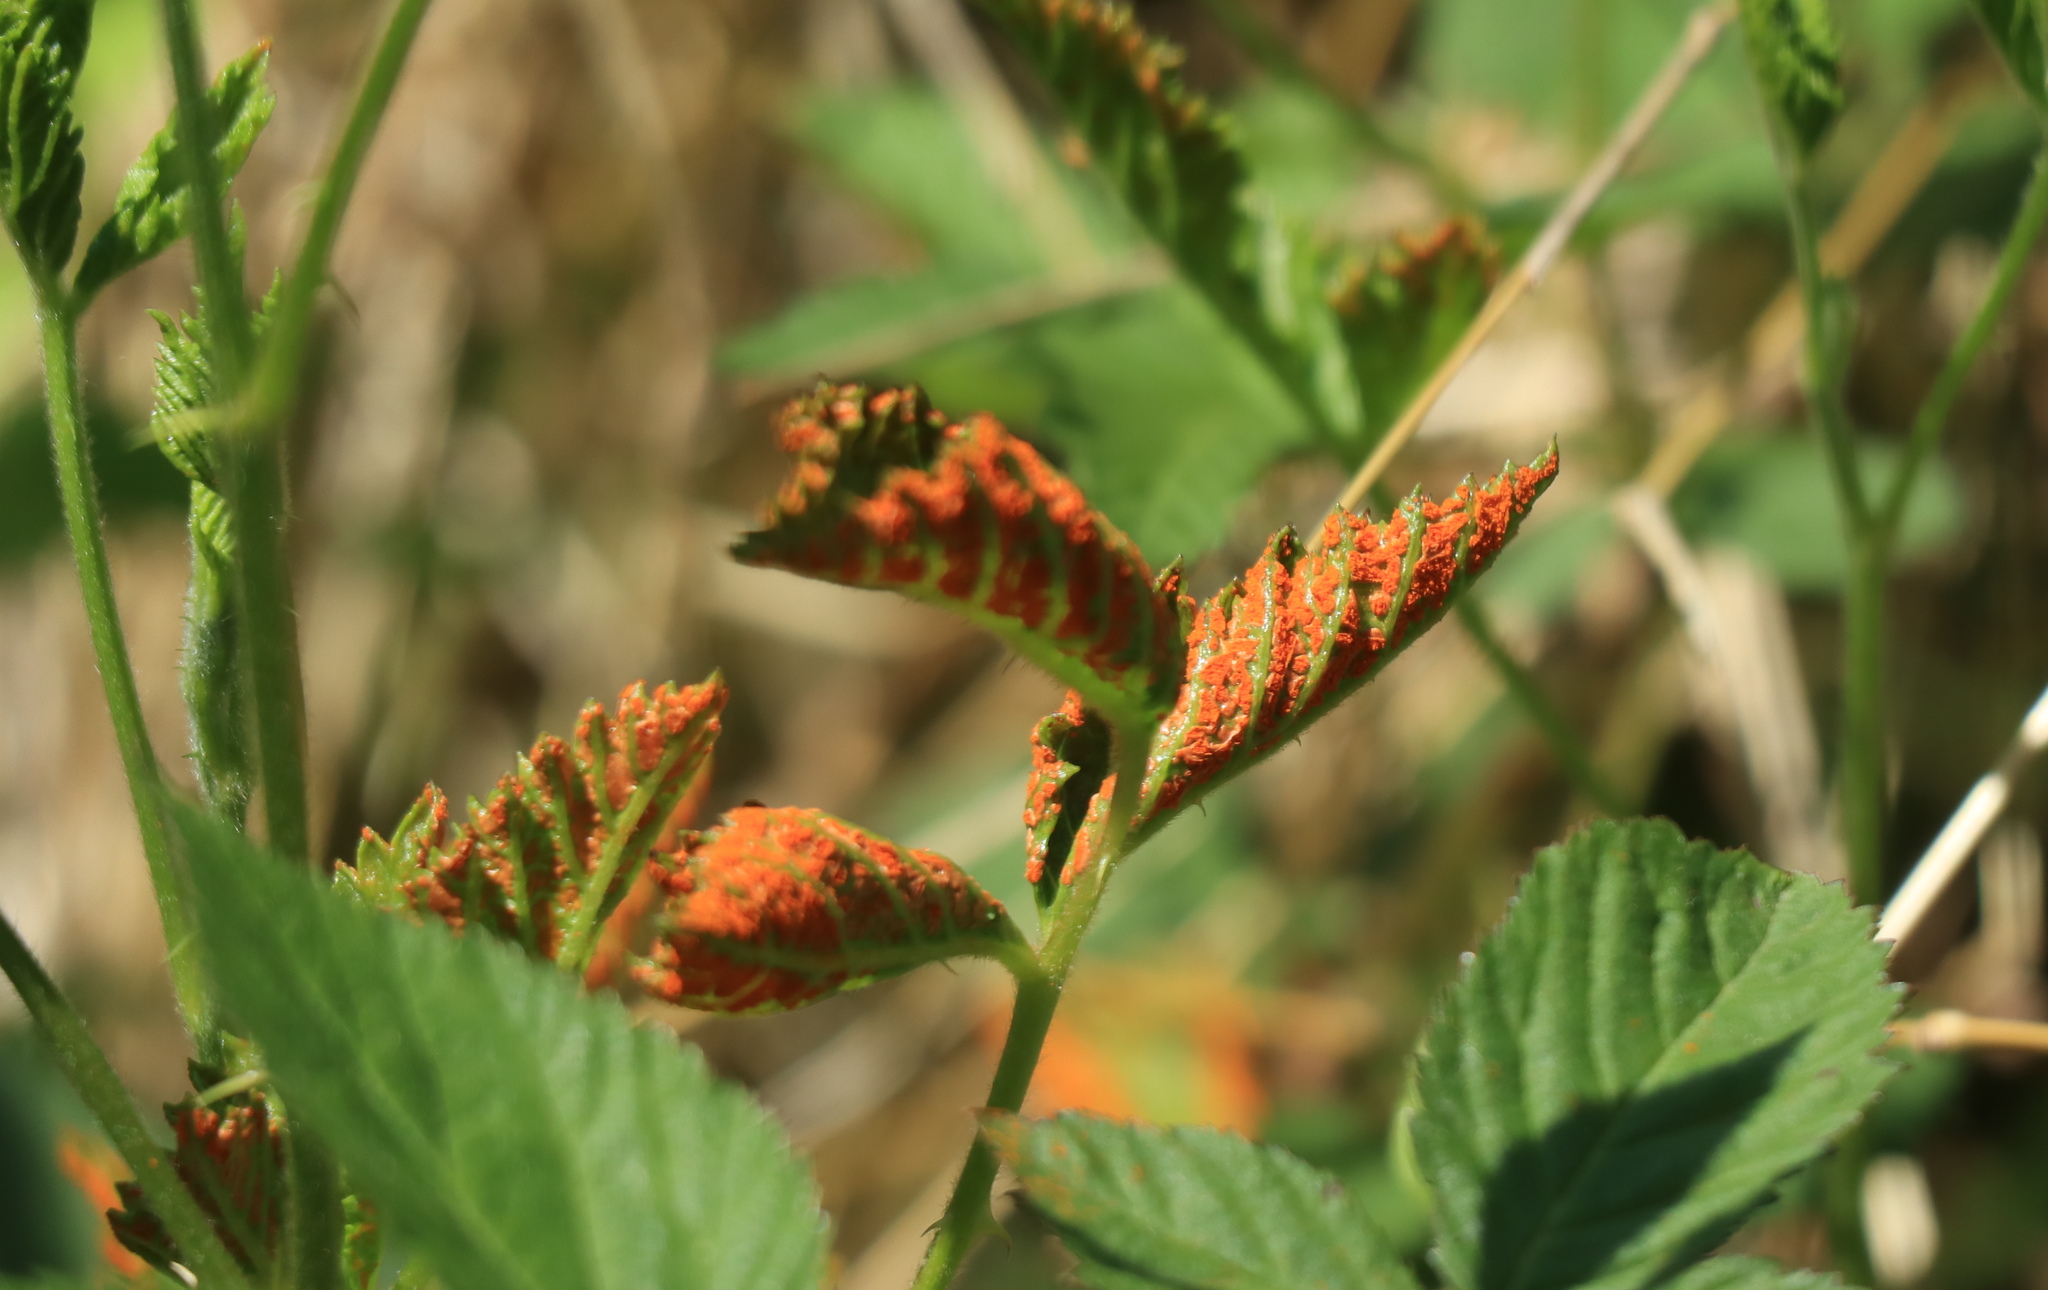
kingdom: Fungi
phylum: Basidiomycota
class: Pucciniomycetes
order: Pucciniales
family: Phragmidiaceae
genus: Arthuriomyces
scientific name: Arthuriomyces peckianus
